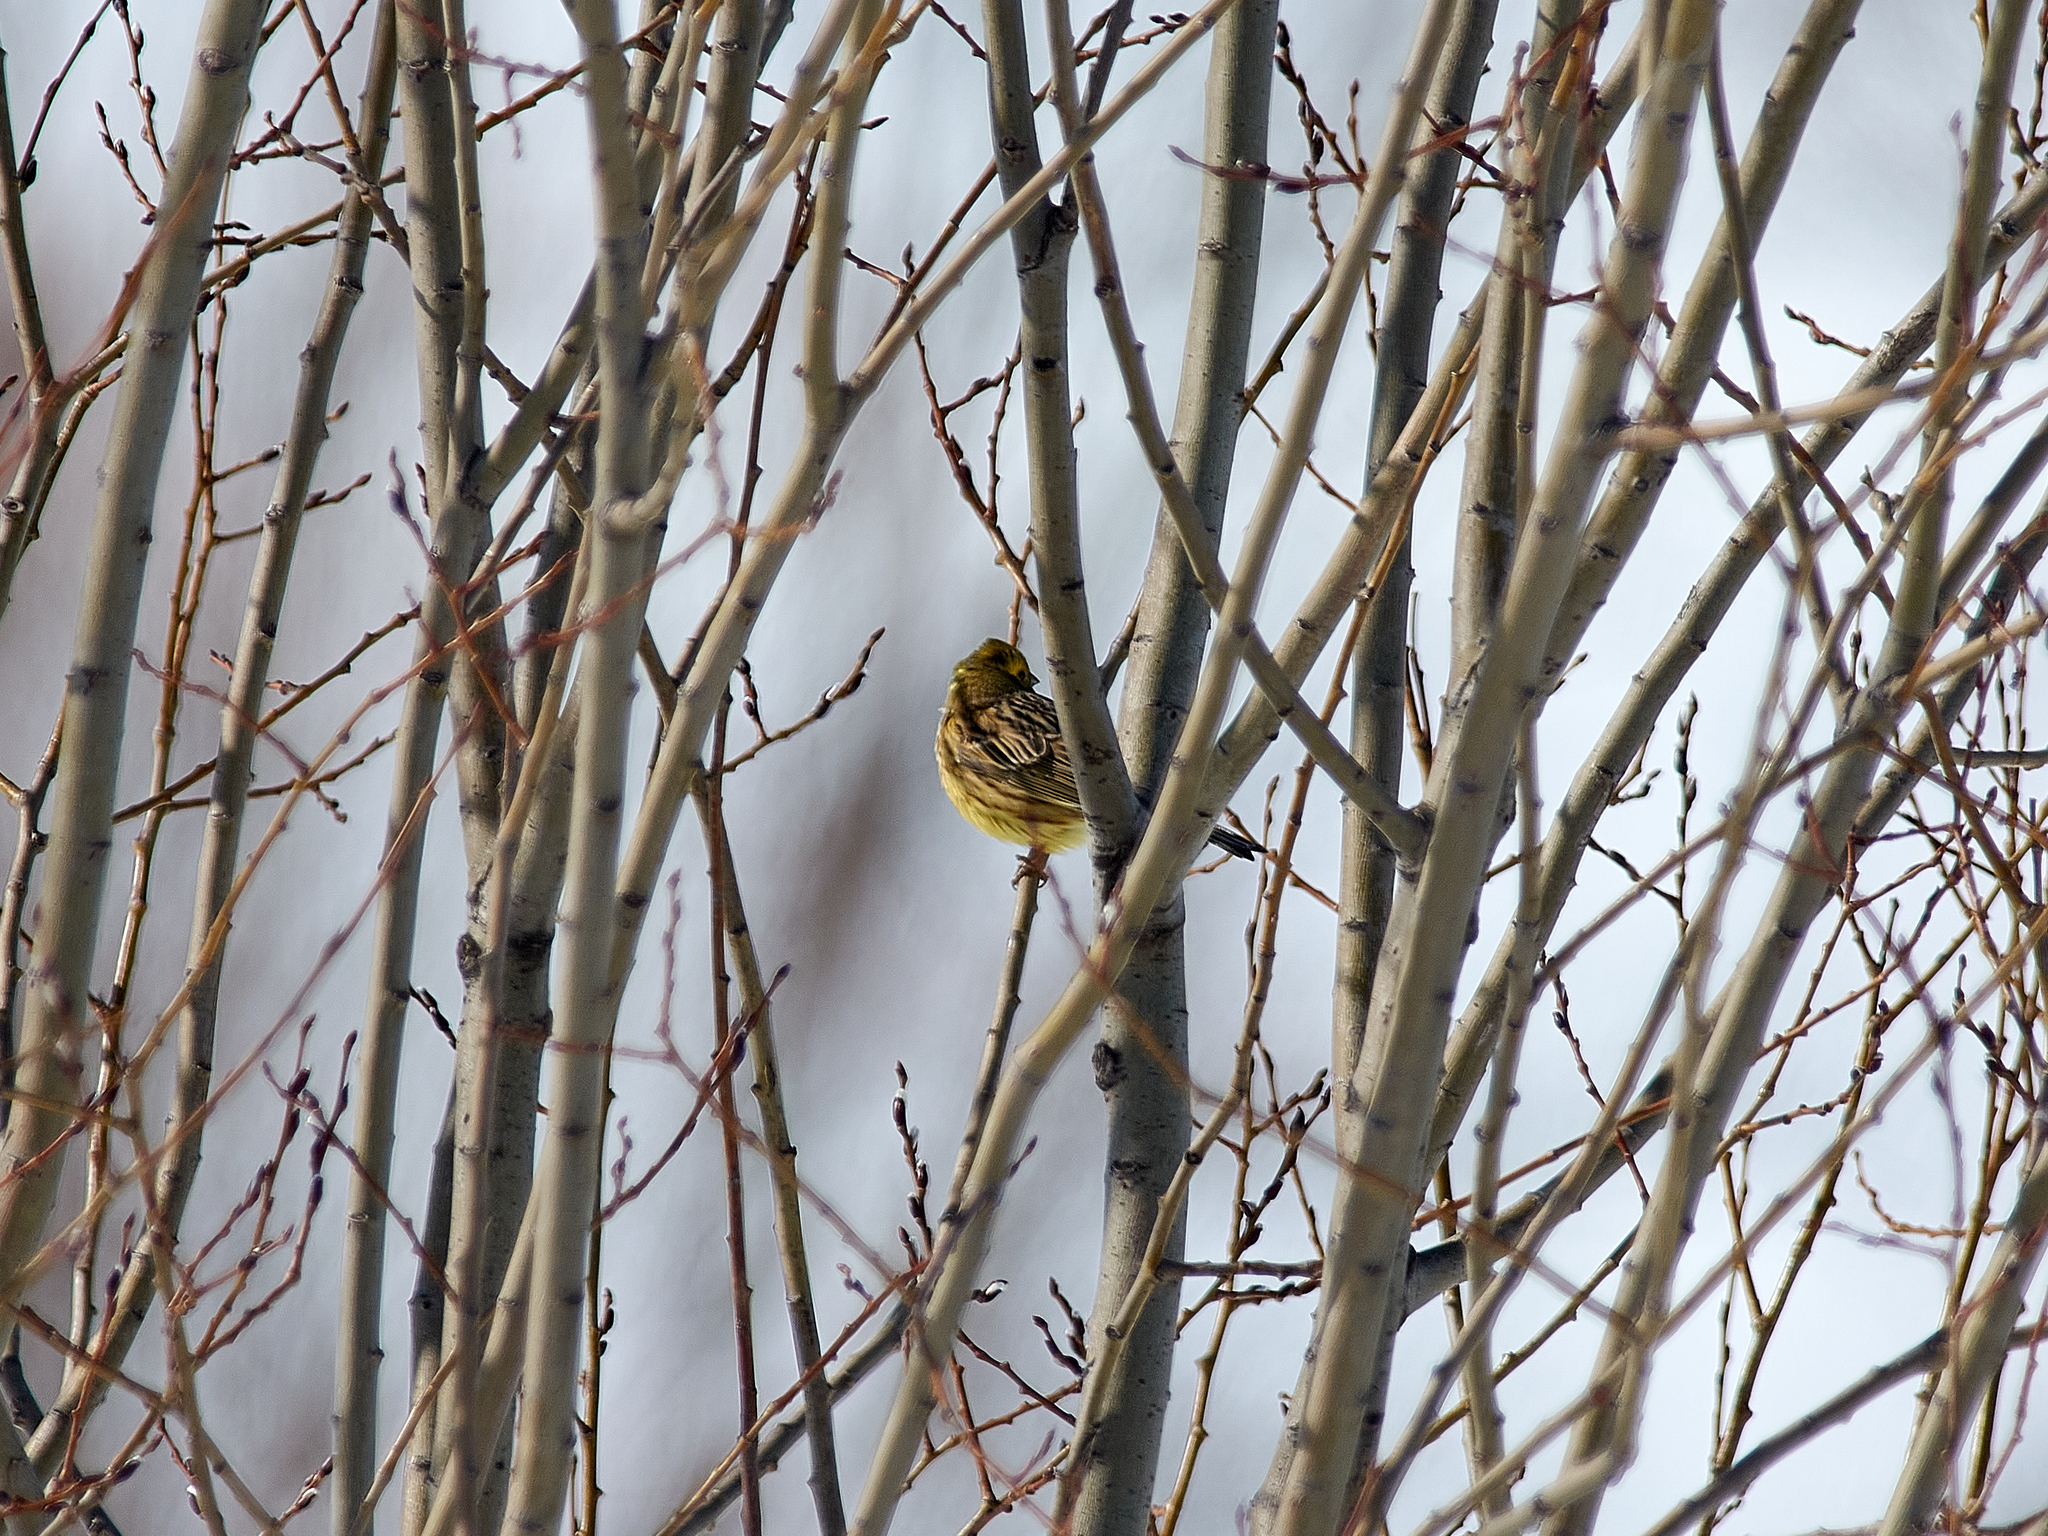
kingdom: Animalia
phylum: Chordata
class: Aves
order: Passeriformes
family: Emberizidae
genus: Emberiza
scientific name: Emberiza citrinella
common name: Yellowhammer
